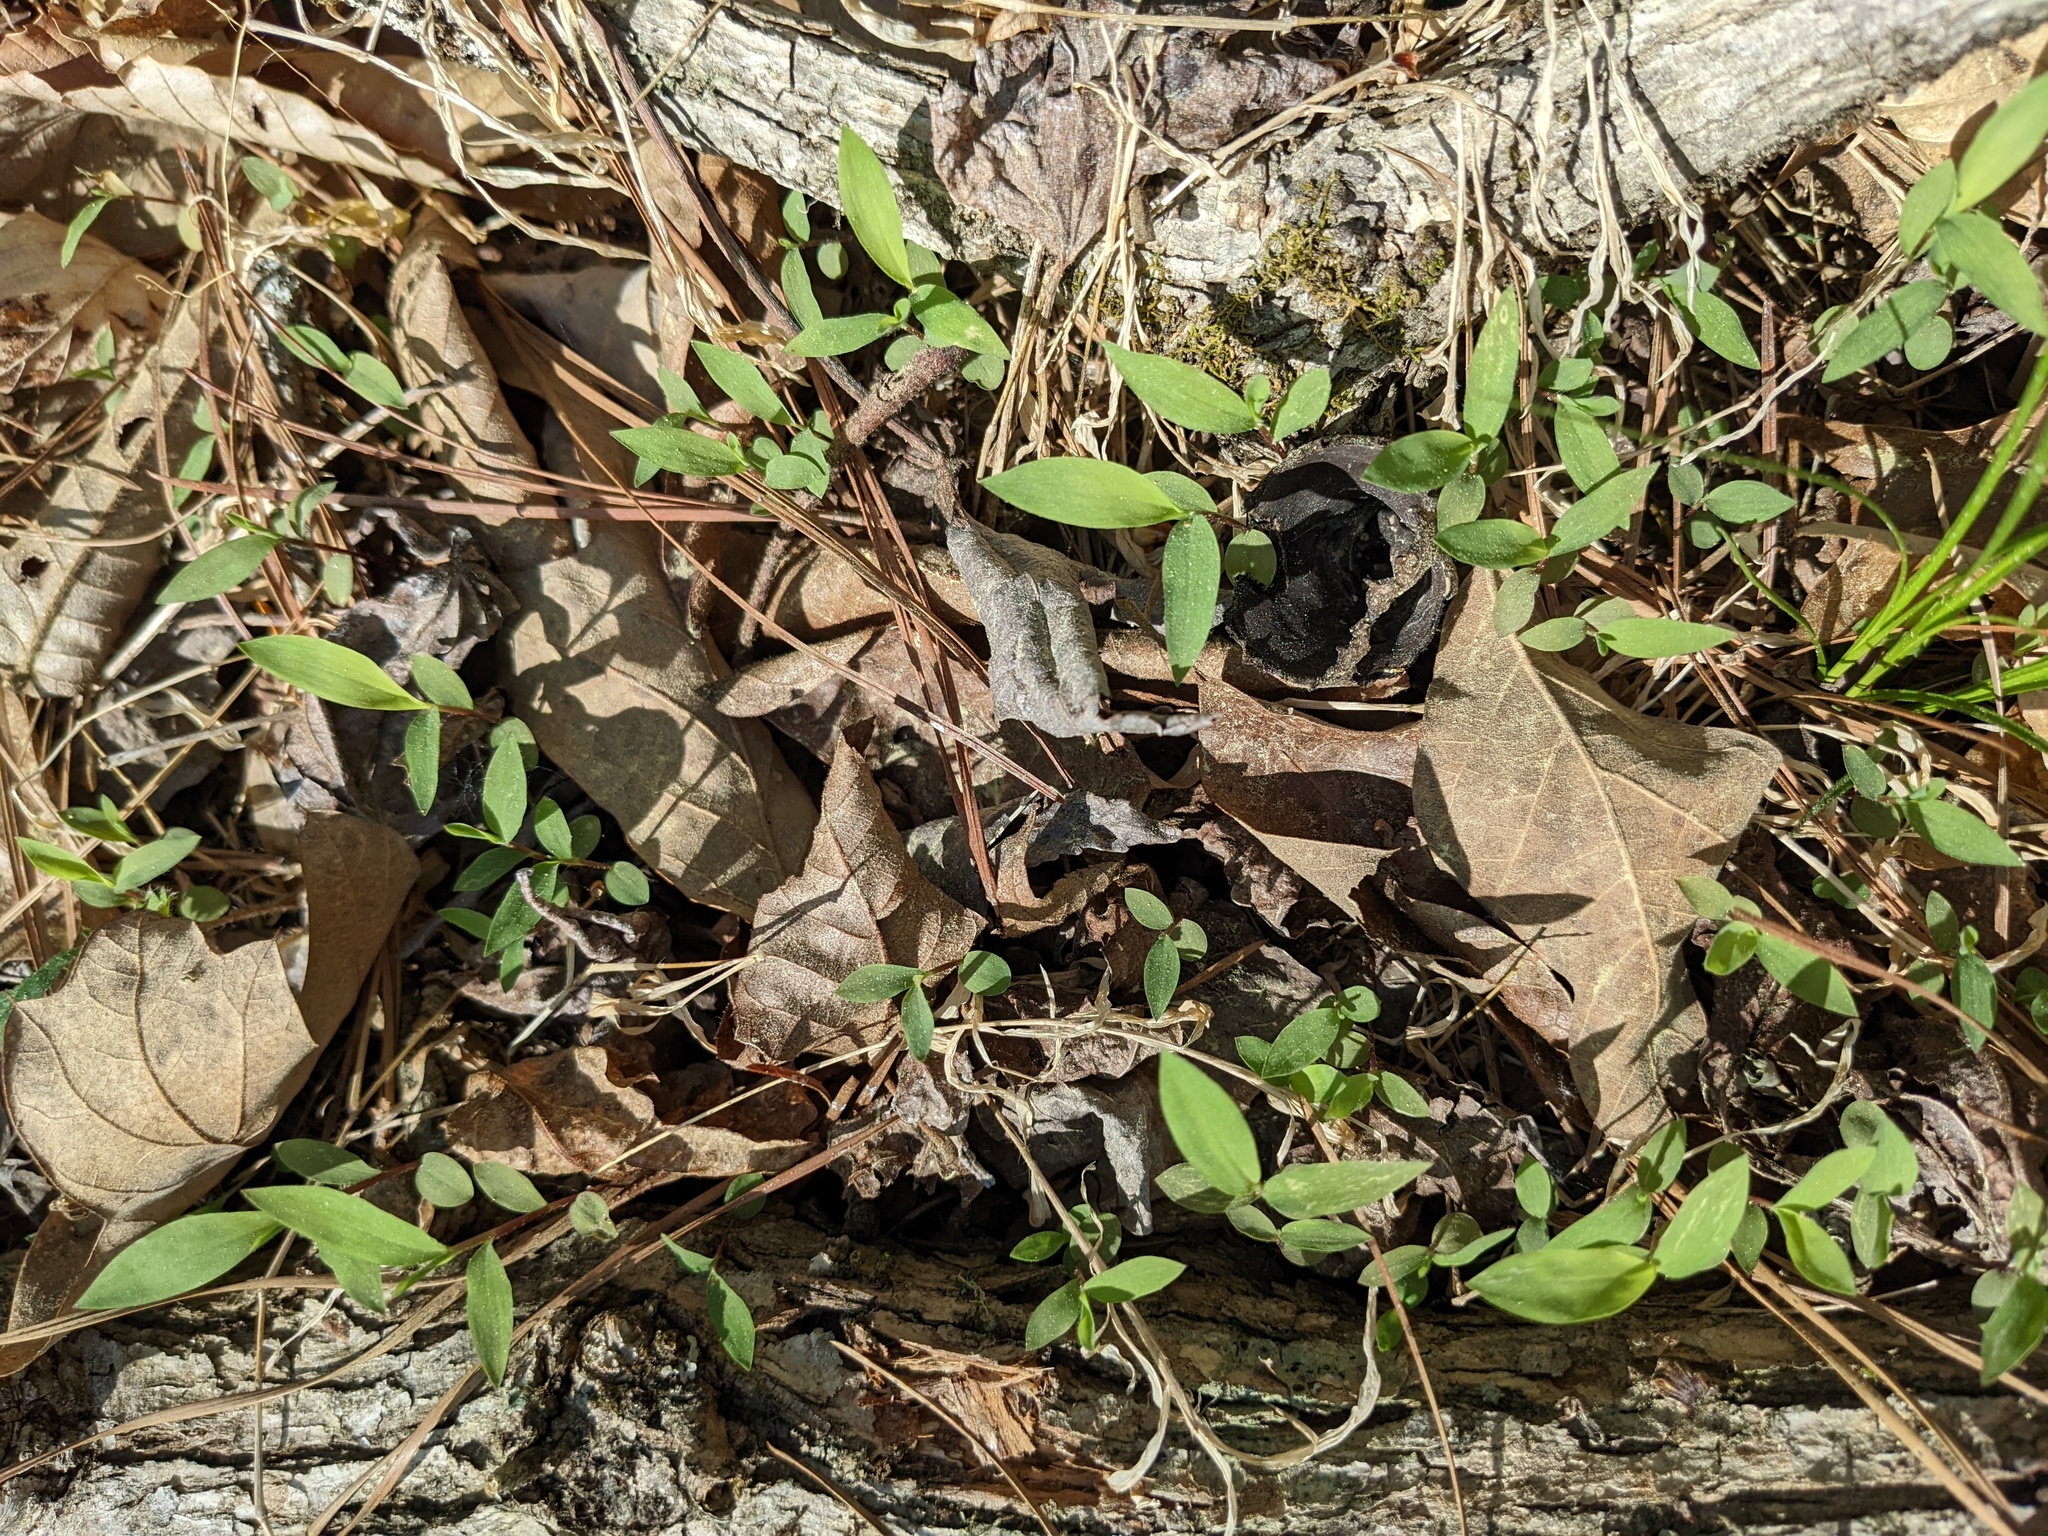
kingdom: Plantae
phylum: Tracheophyta
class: Liliopsida
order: Poales
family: Poaceae
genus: Microstegium
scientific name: Microstegium vimineum
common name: Japanese stiltgrass
